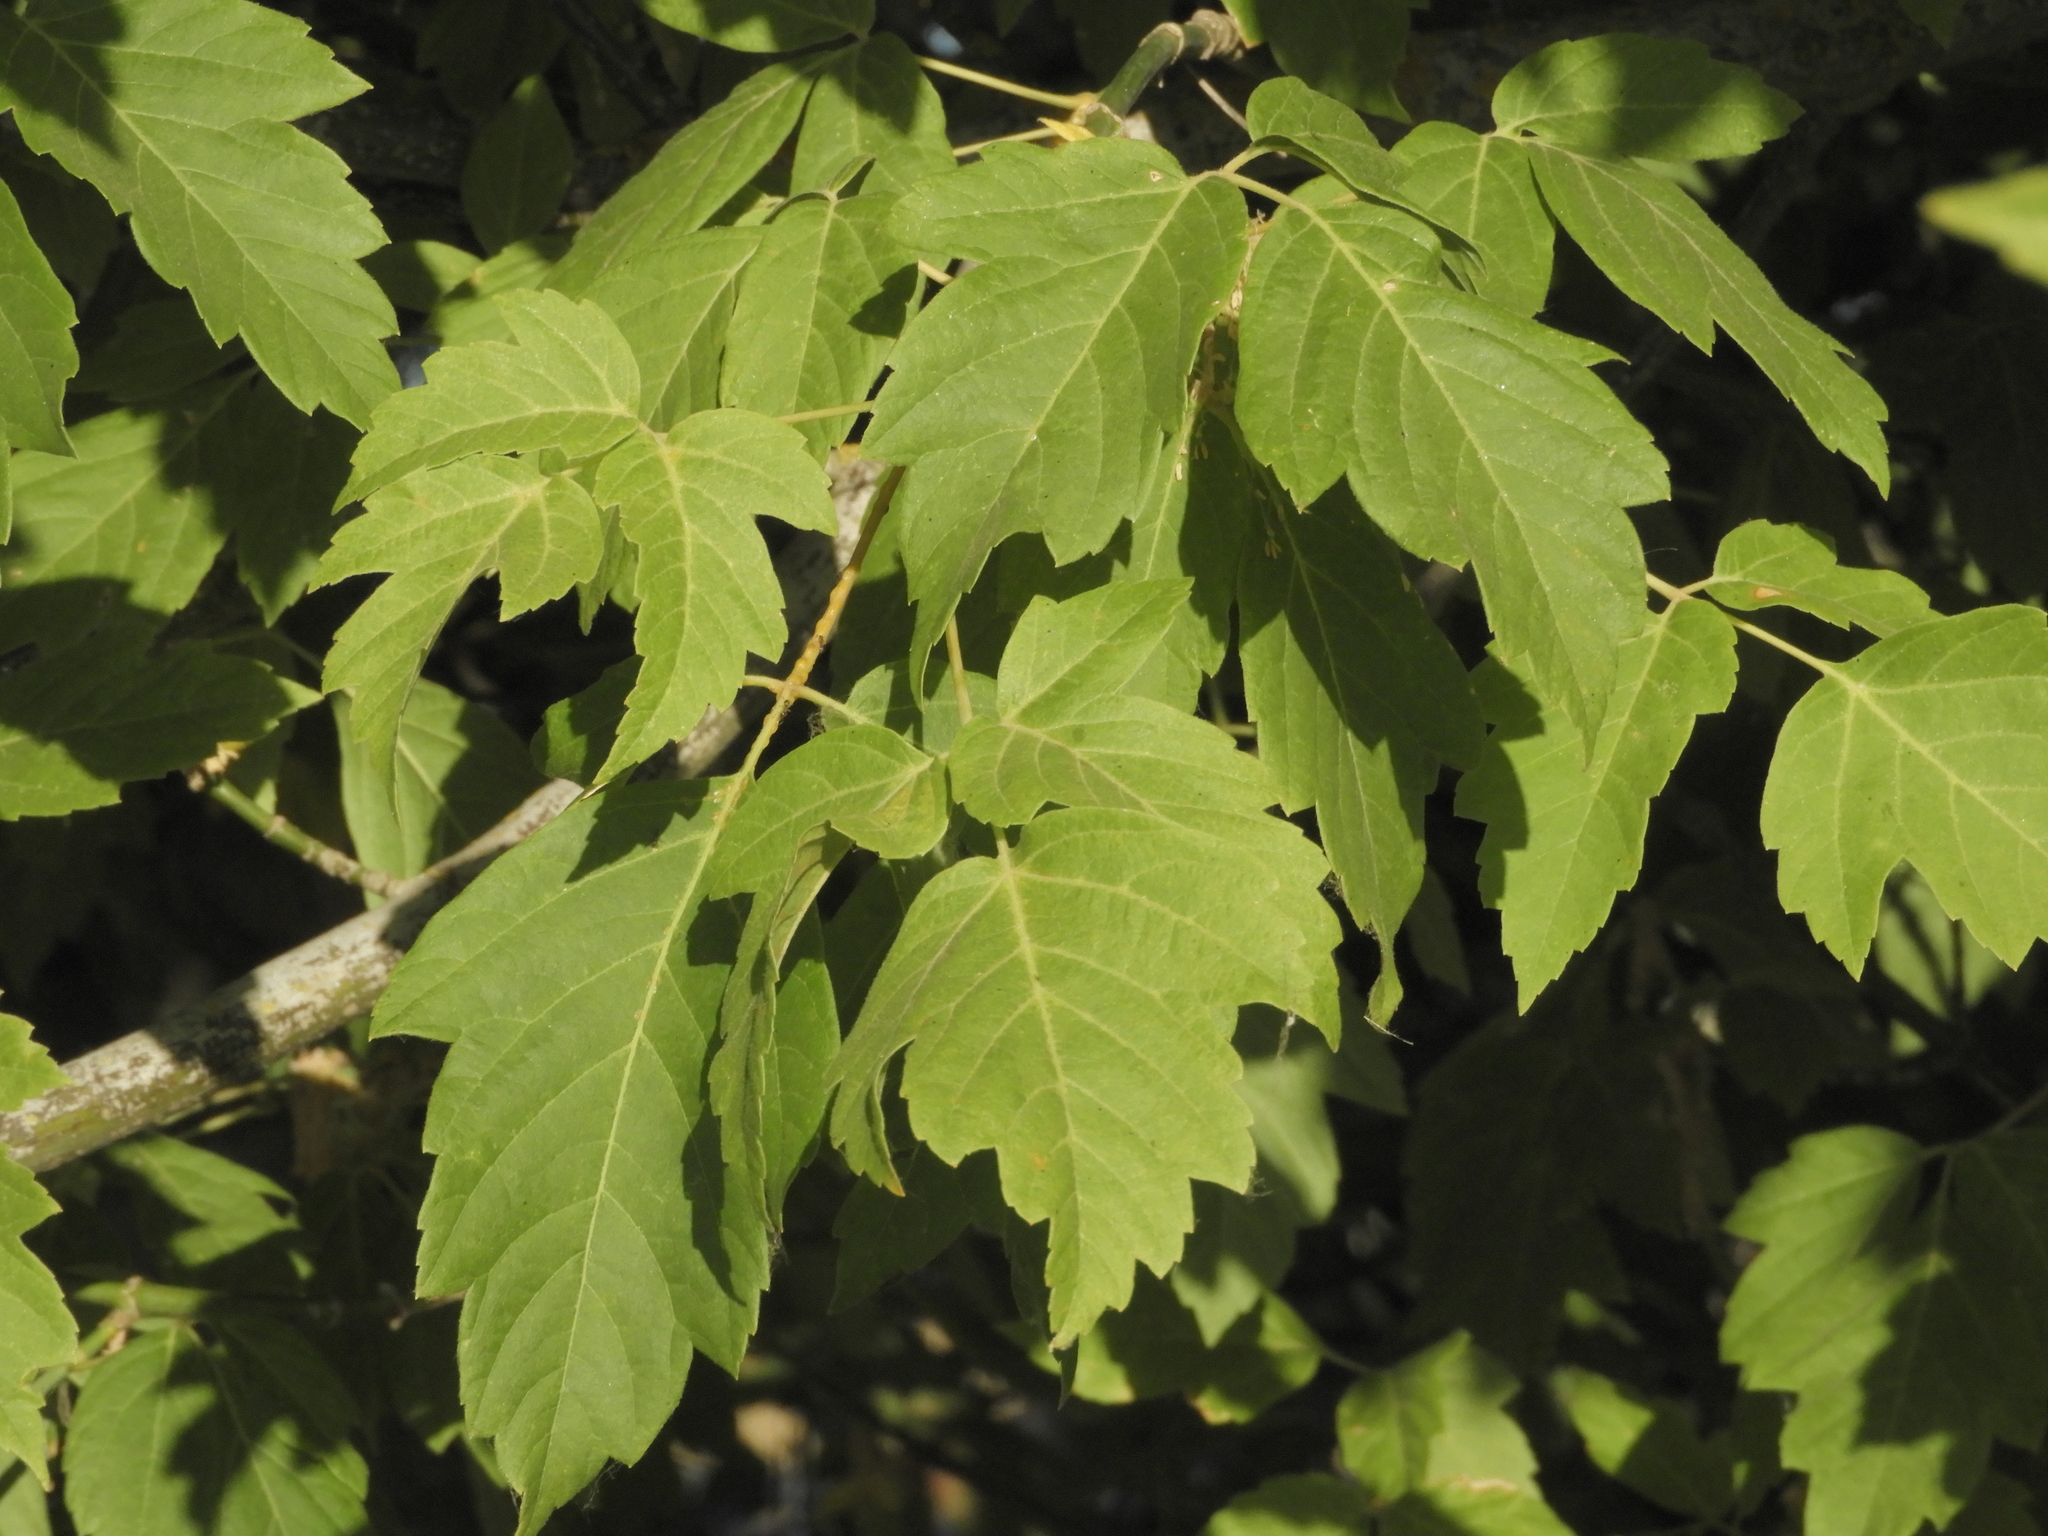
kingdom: Plantae
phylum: Tracheophyta
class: Magnoliopsida
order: Sapindales
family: Sapindaceae
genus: Acer
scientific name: Acer negundo
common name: Ashleaf maple
